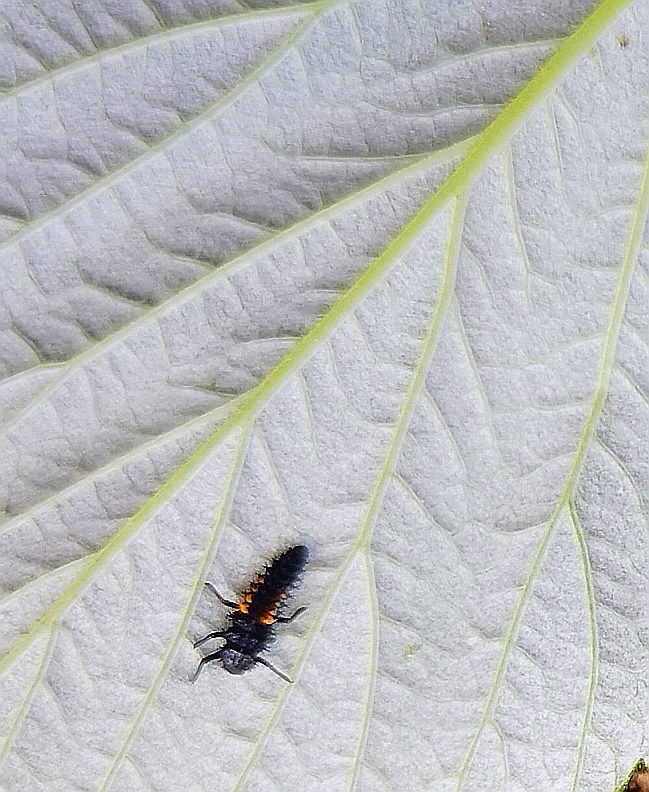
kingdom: Animalia
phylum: Arthropoda
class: Insecta
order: Coleoptera
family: Coccinellidae
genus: Harmonia
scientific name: Harmonia axyridis
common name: Harlequin ladybird
